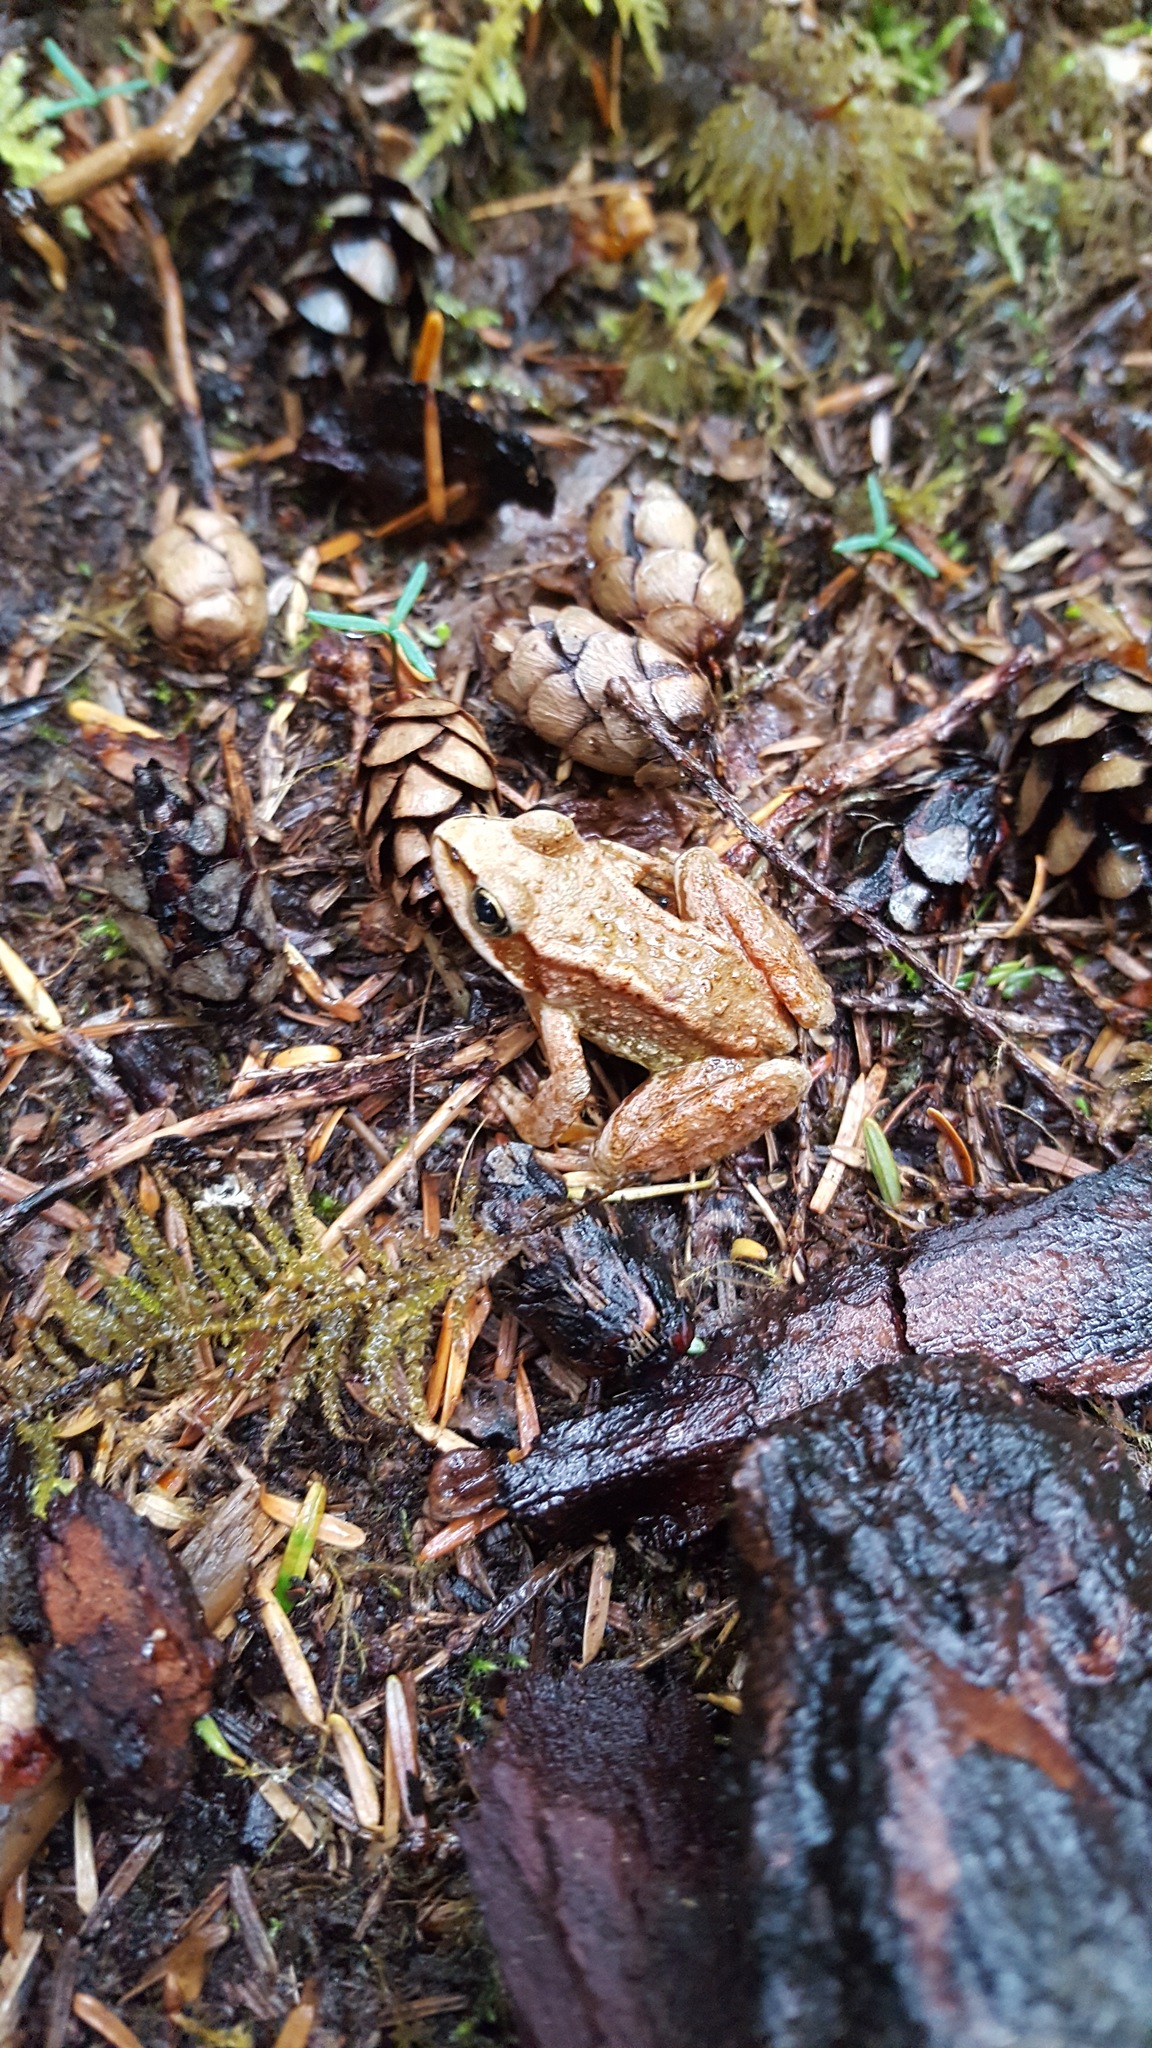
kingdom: Animalia
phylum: Chordata
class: Amphibia
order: Anura
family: Ranidae
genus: Rana
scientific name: Rana cascadae
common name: Cascades frog
